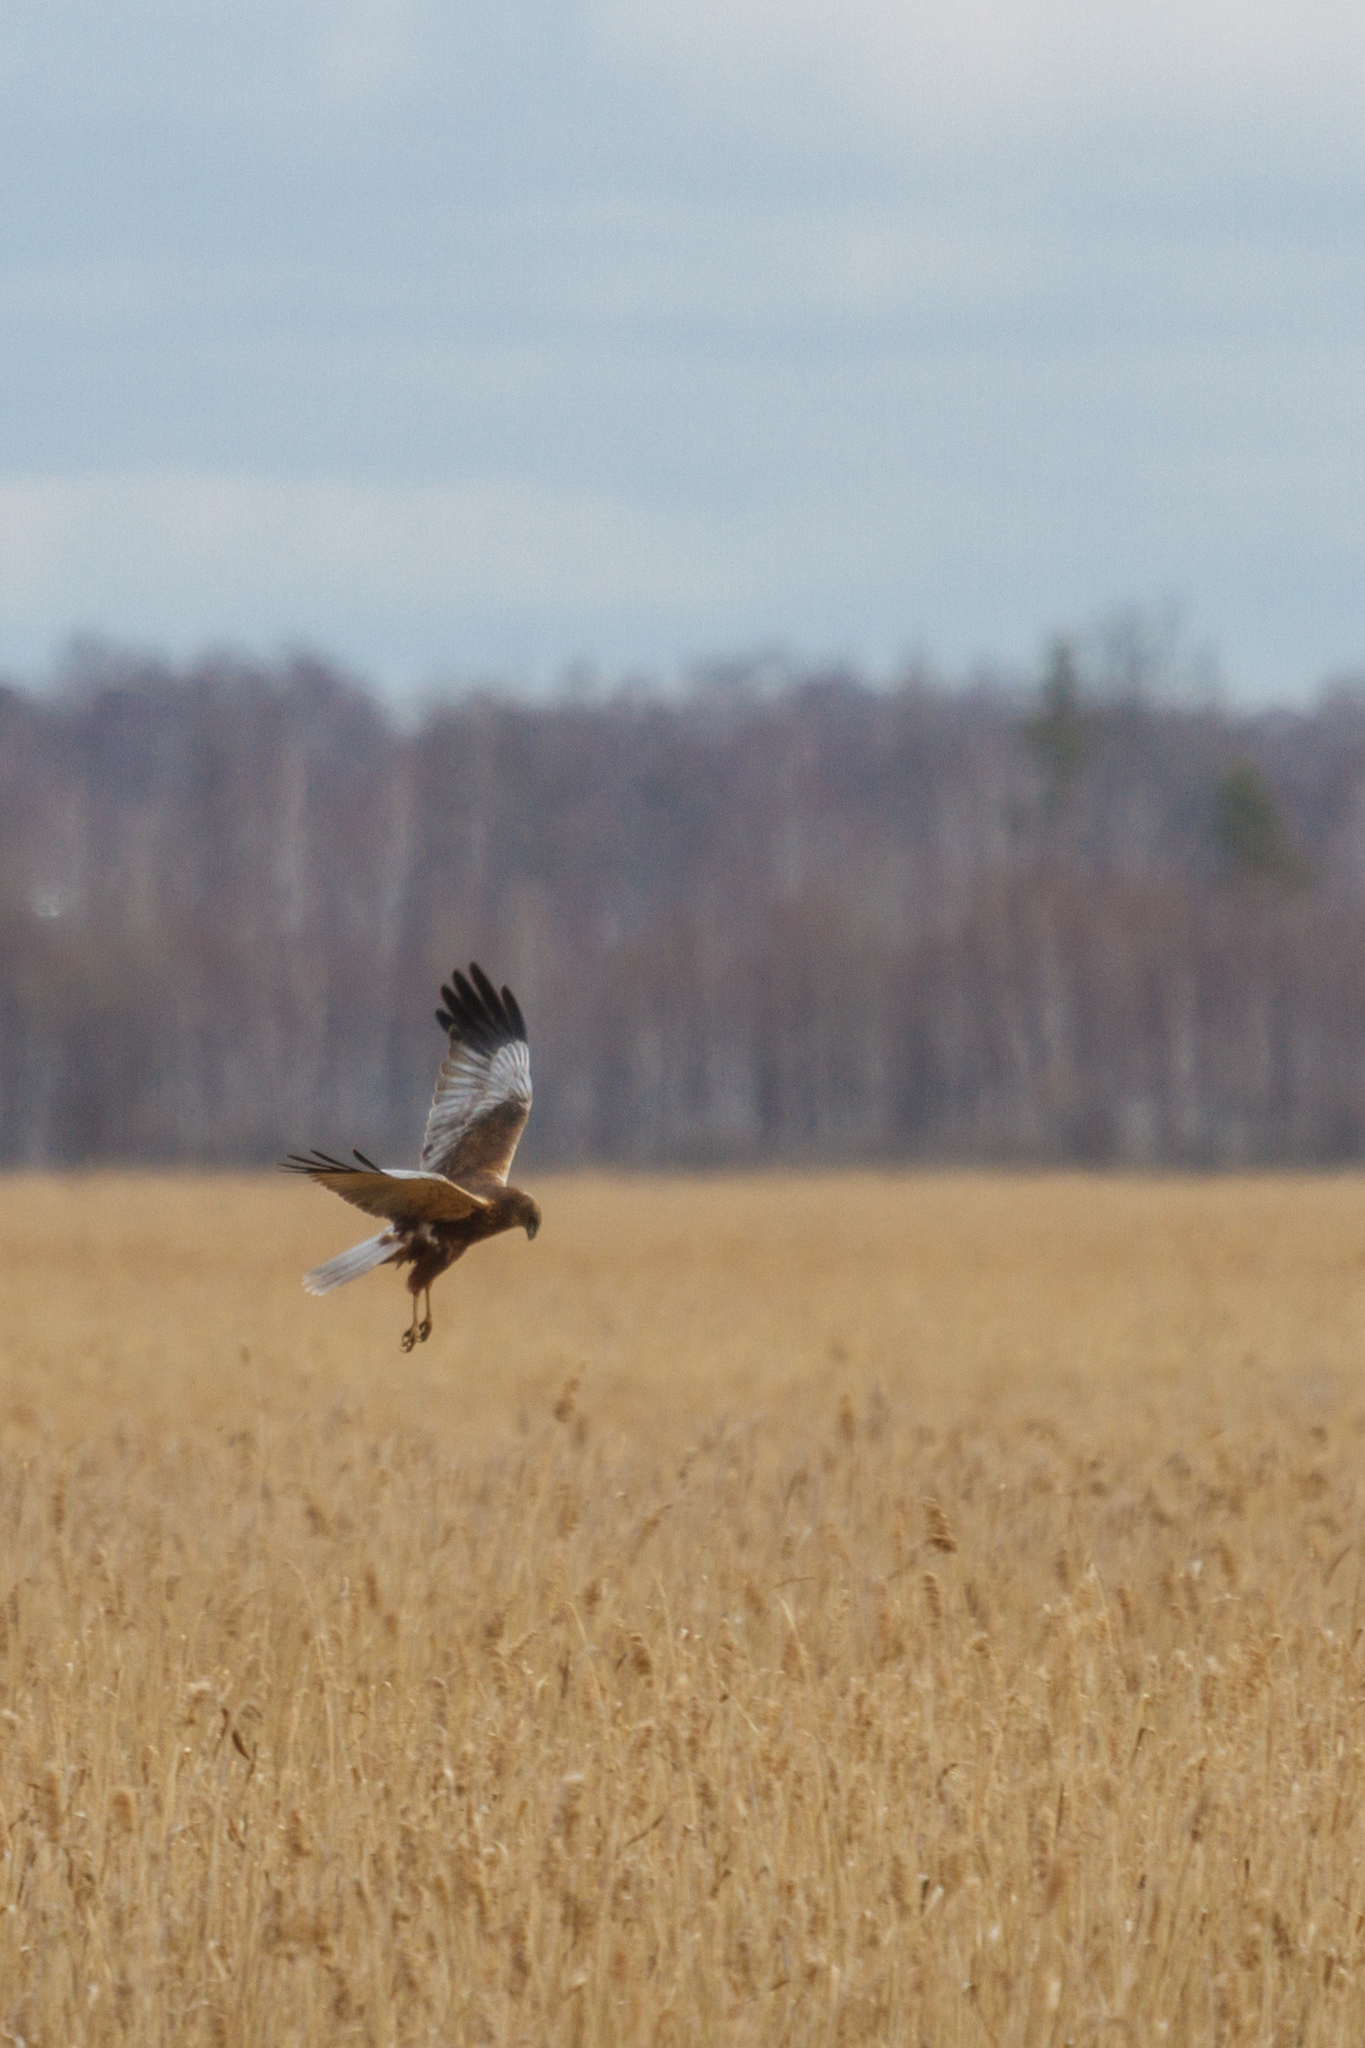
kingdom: Animalia
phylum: Chordata
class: Aves
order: Accipitriformes
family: Accipitridae
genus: Circus
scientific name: Circus aeruginosus
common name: Western marsh harrier
